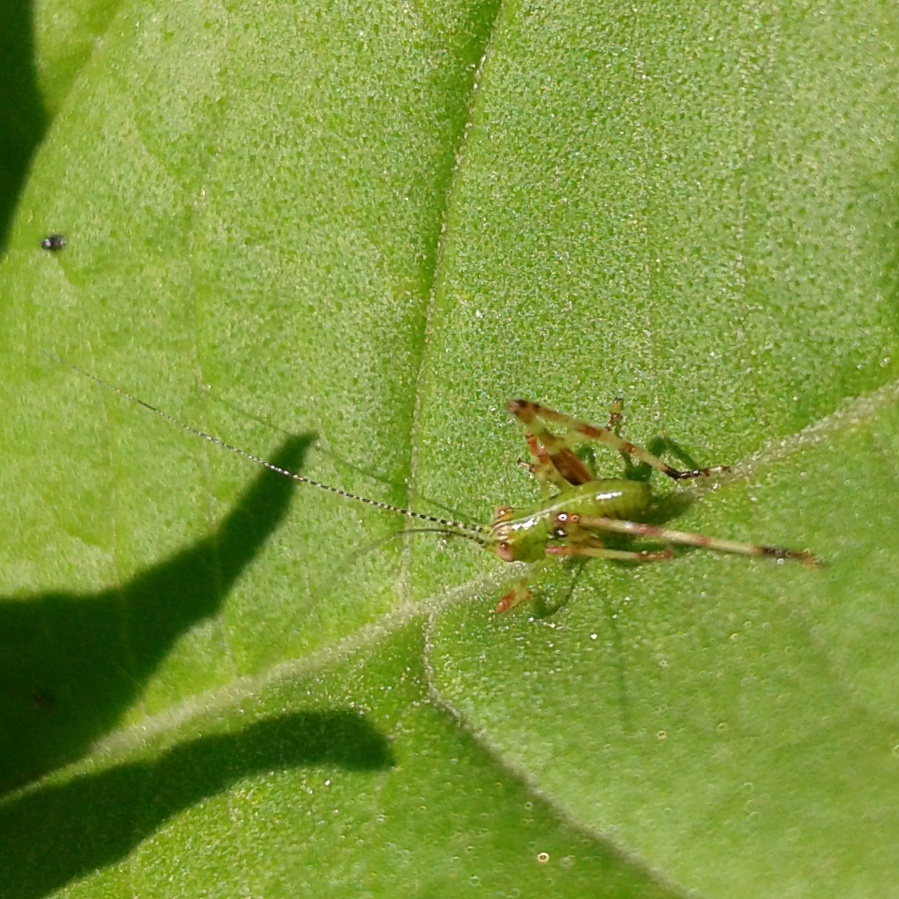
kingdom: Animalia
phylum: Arthropoda
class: Insecta
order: Orthoptera
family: Tettigoniidae
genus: Caedicia
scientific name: Caedicia simplex
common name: Common garden katydid
